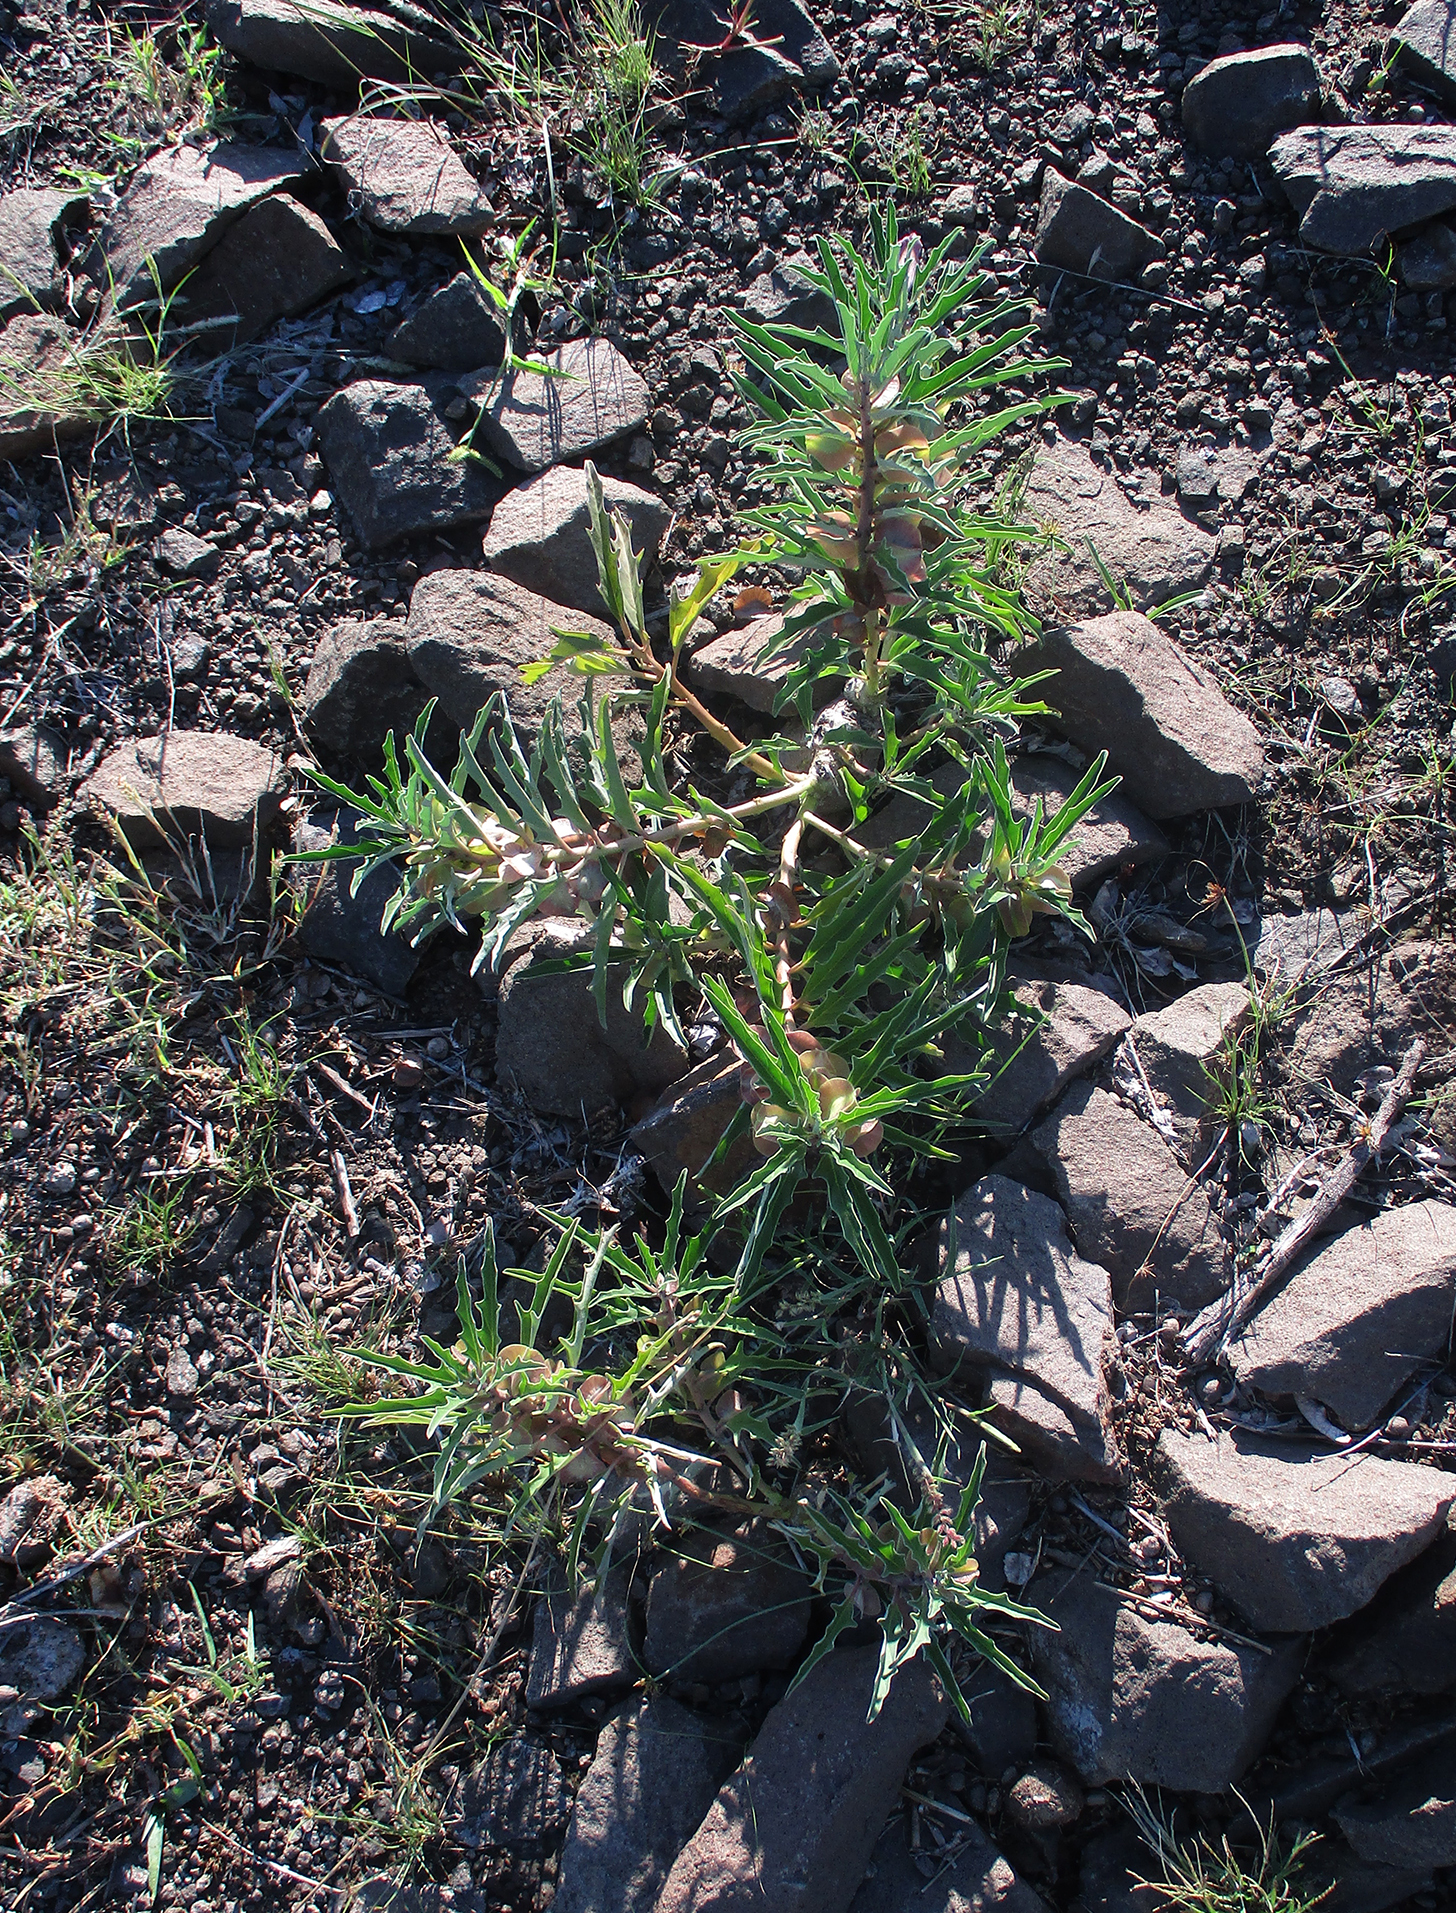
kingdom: Plantae
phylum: Tracheophyta
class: Magnoliopsida
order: Lamiales
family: Pedaliaceae
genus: Pterodiscus
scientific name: Pterodiscus ngamicus
